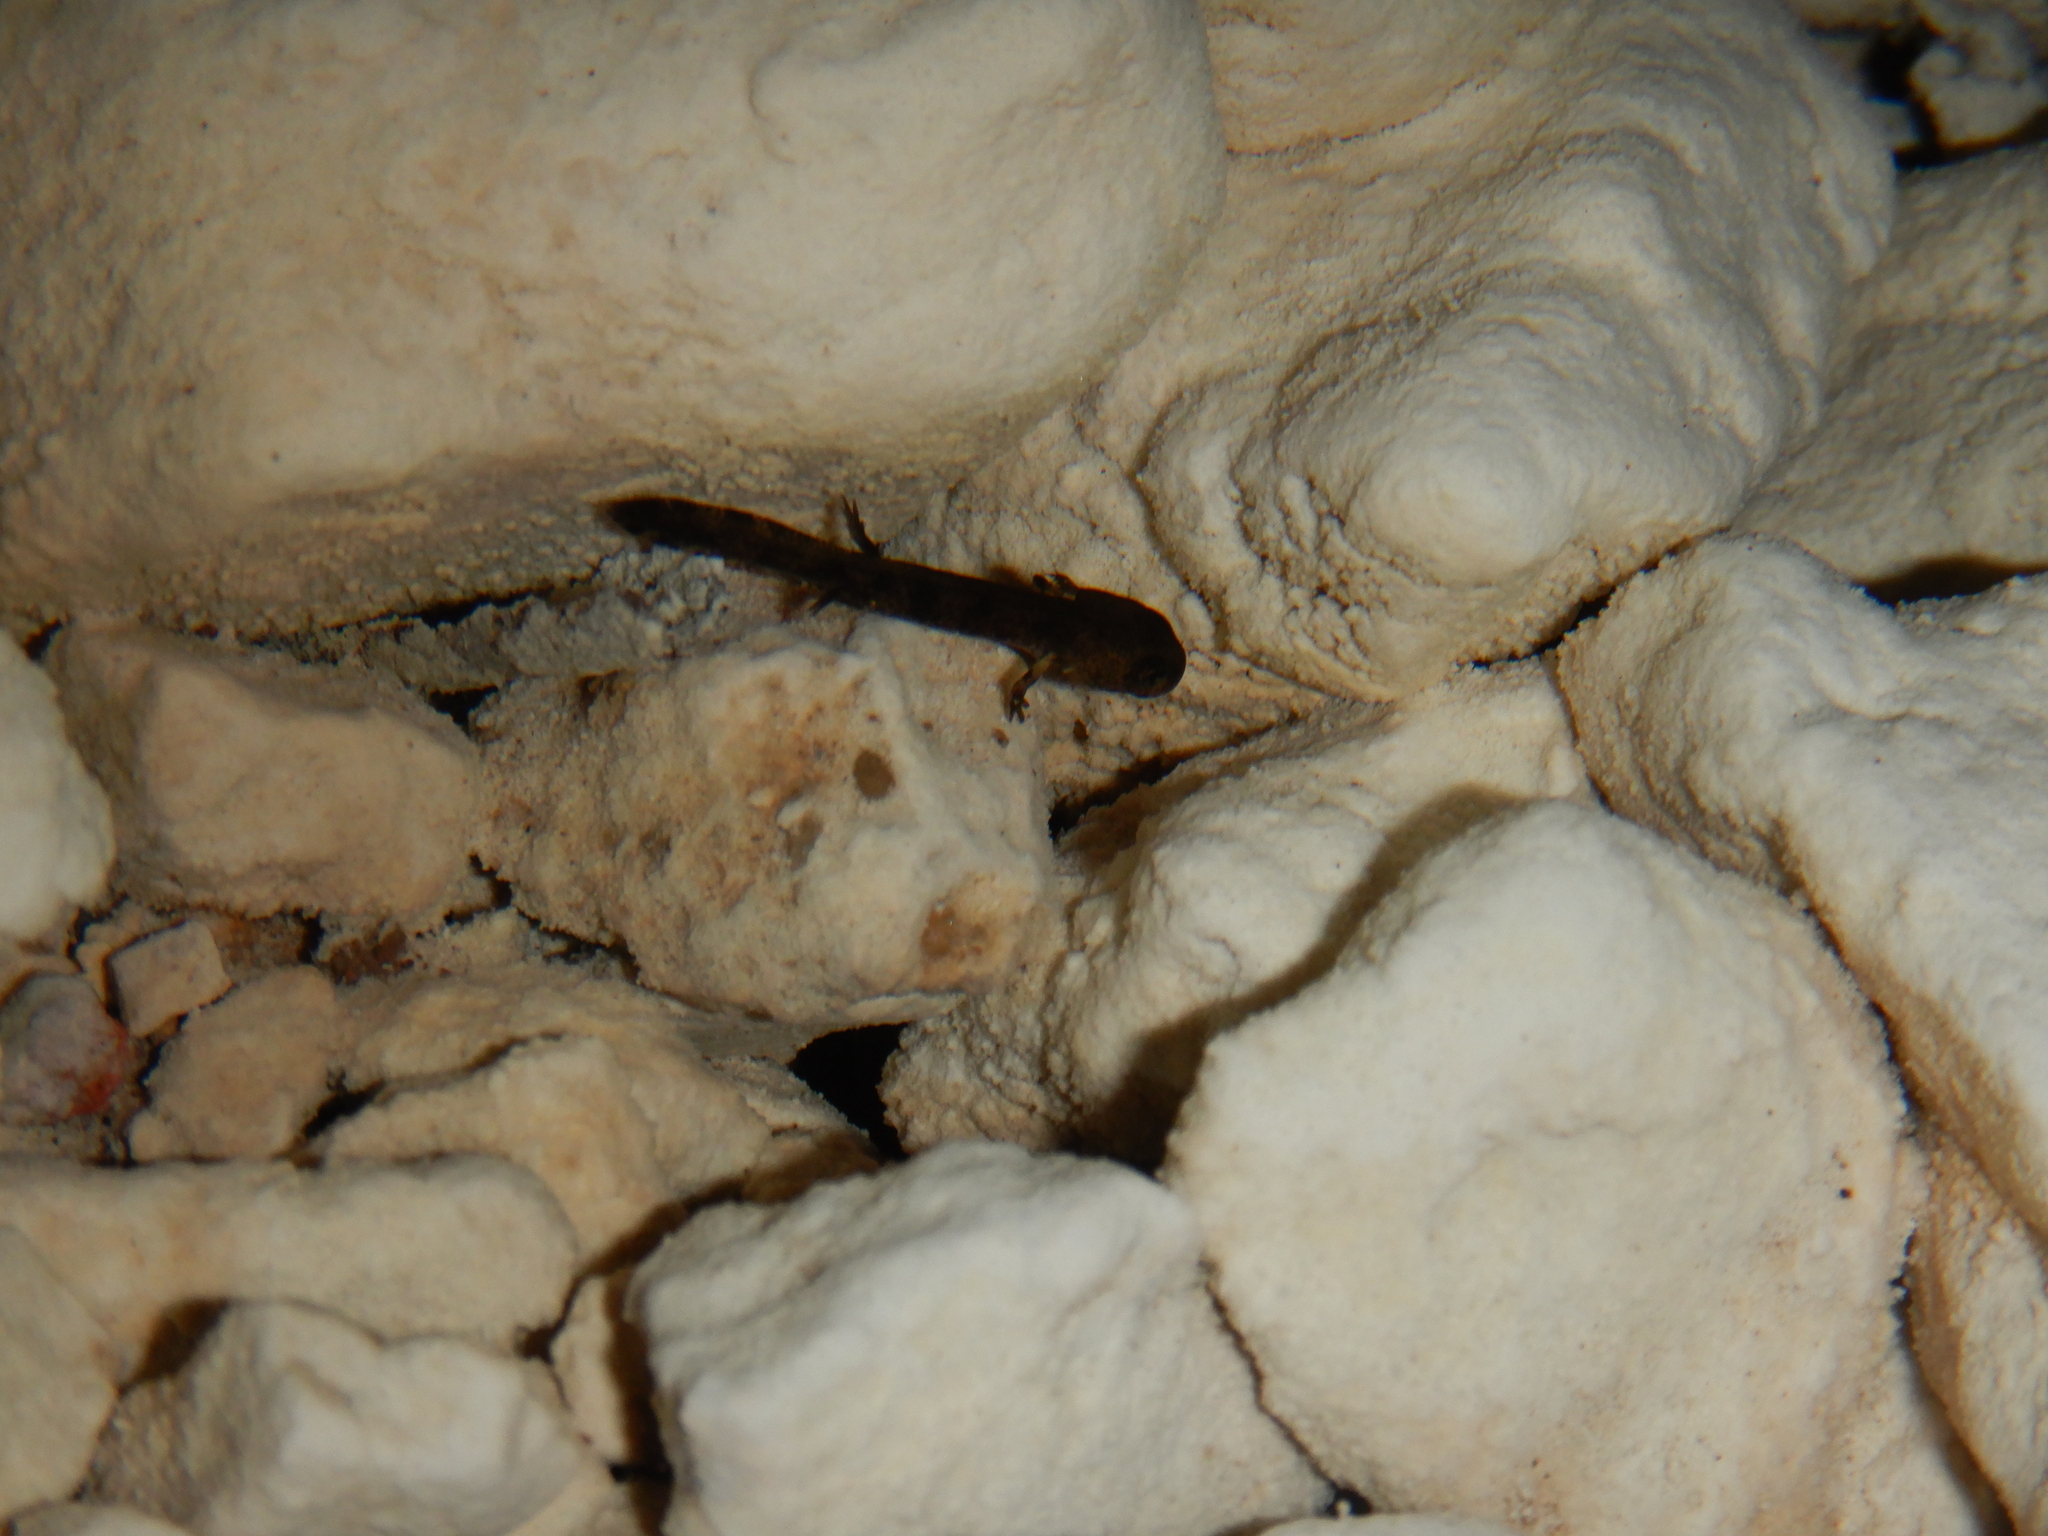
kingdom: Animalia
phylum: Chordata
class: Amphibia
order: Caudata
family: Salamandridae
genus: Salamandra
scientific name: Salamandra salamandra
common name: Fire salamander
